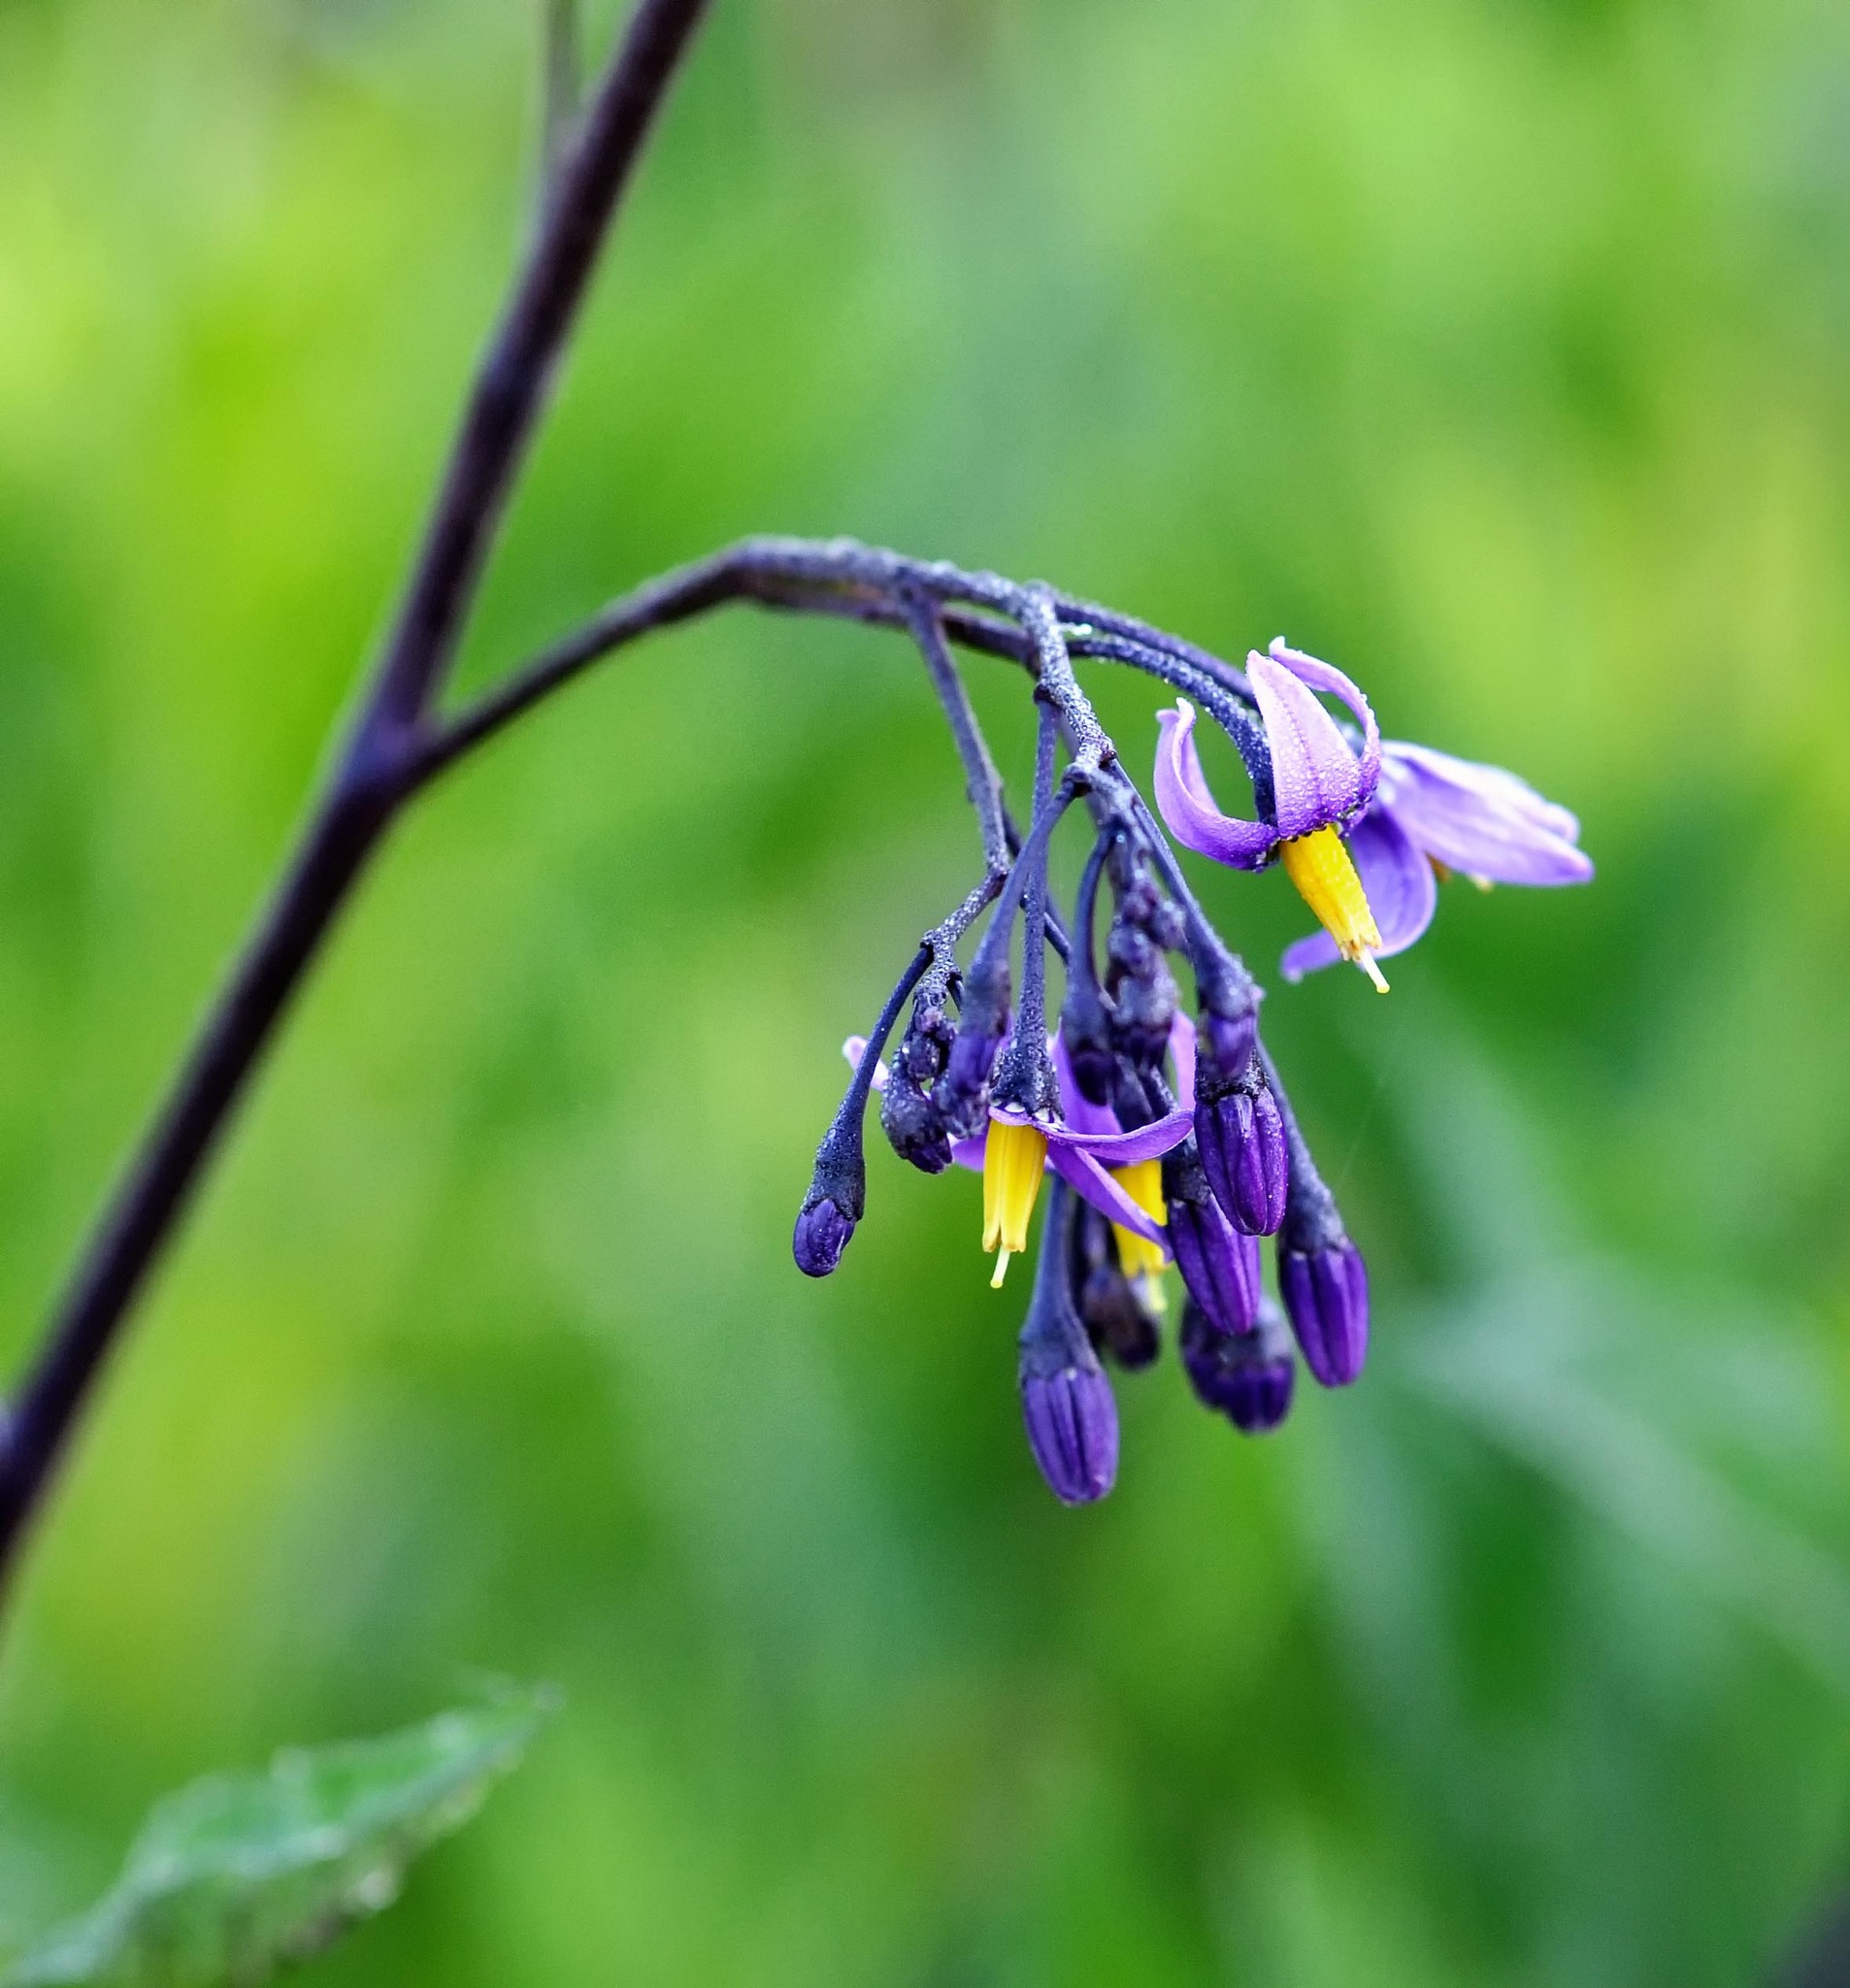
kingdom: Plantae
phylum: Tracheophyta
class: Magnoliopsida
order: Solanales
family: Solanaceae
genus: Solanum
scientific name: Solanum dulcamara
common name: Climbing nightshade
